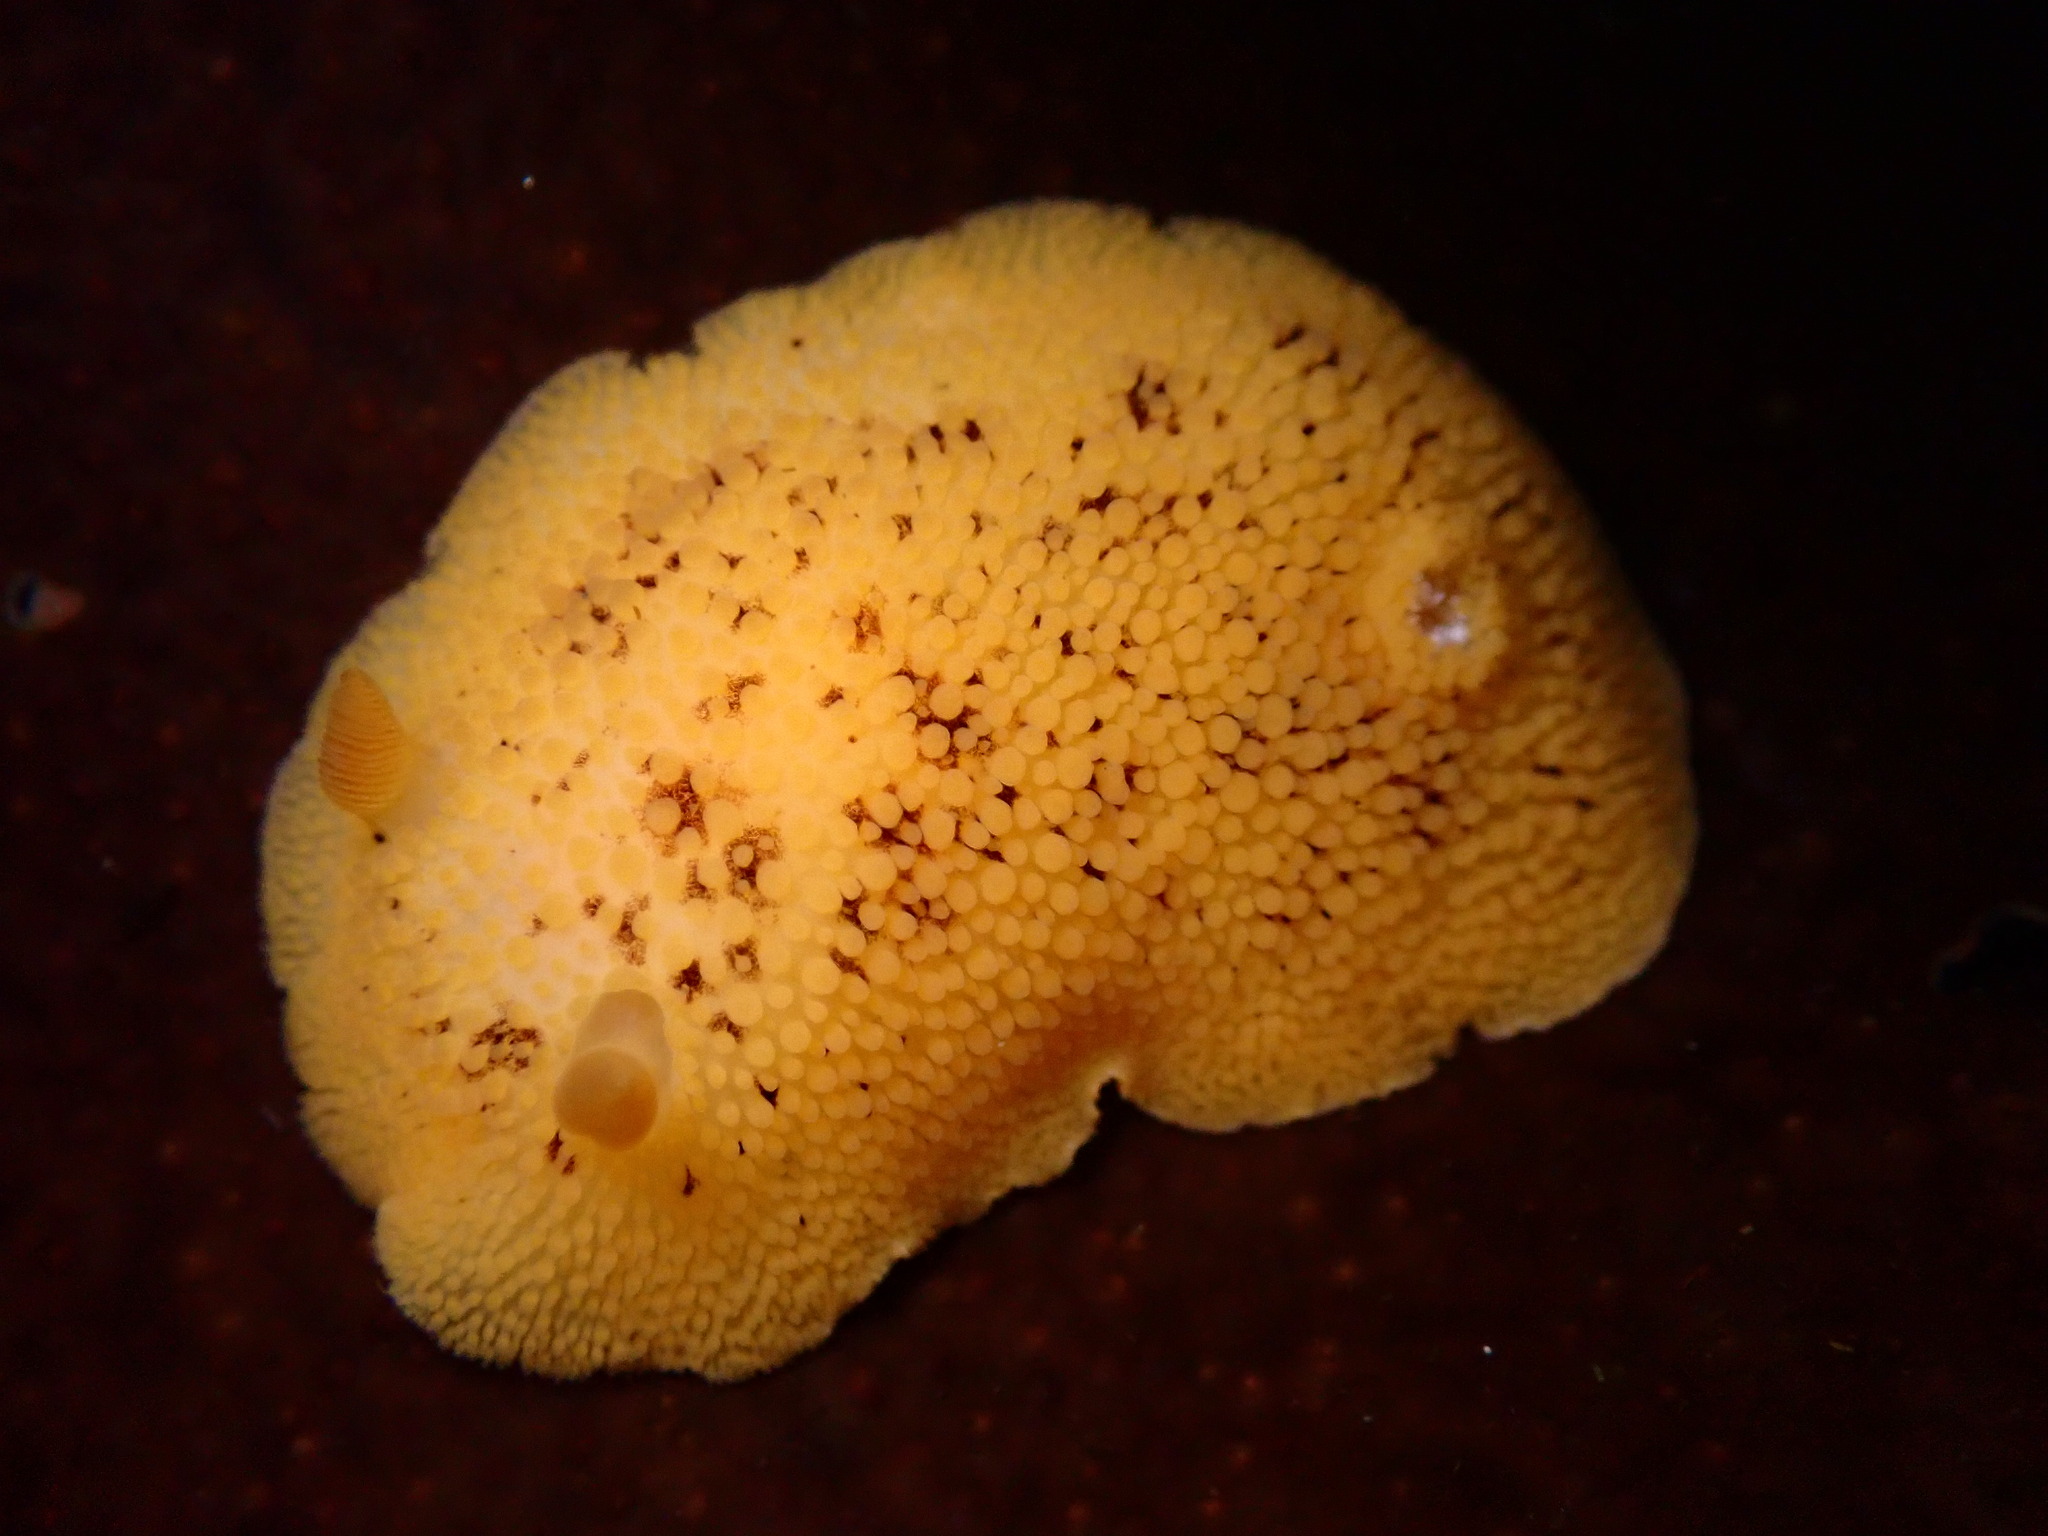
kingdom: Animalia
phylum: Mollusca
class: Gastropoda
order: Nudibranchia
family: Discodorididae
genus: Peltodoris
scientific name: Peltodoris nobilis
